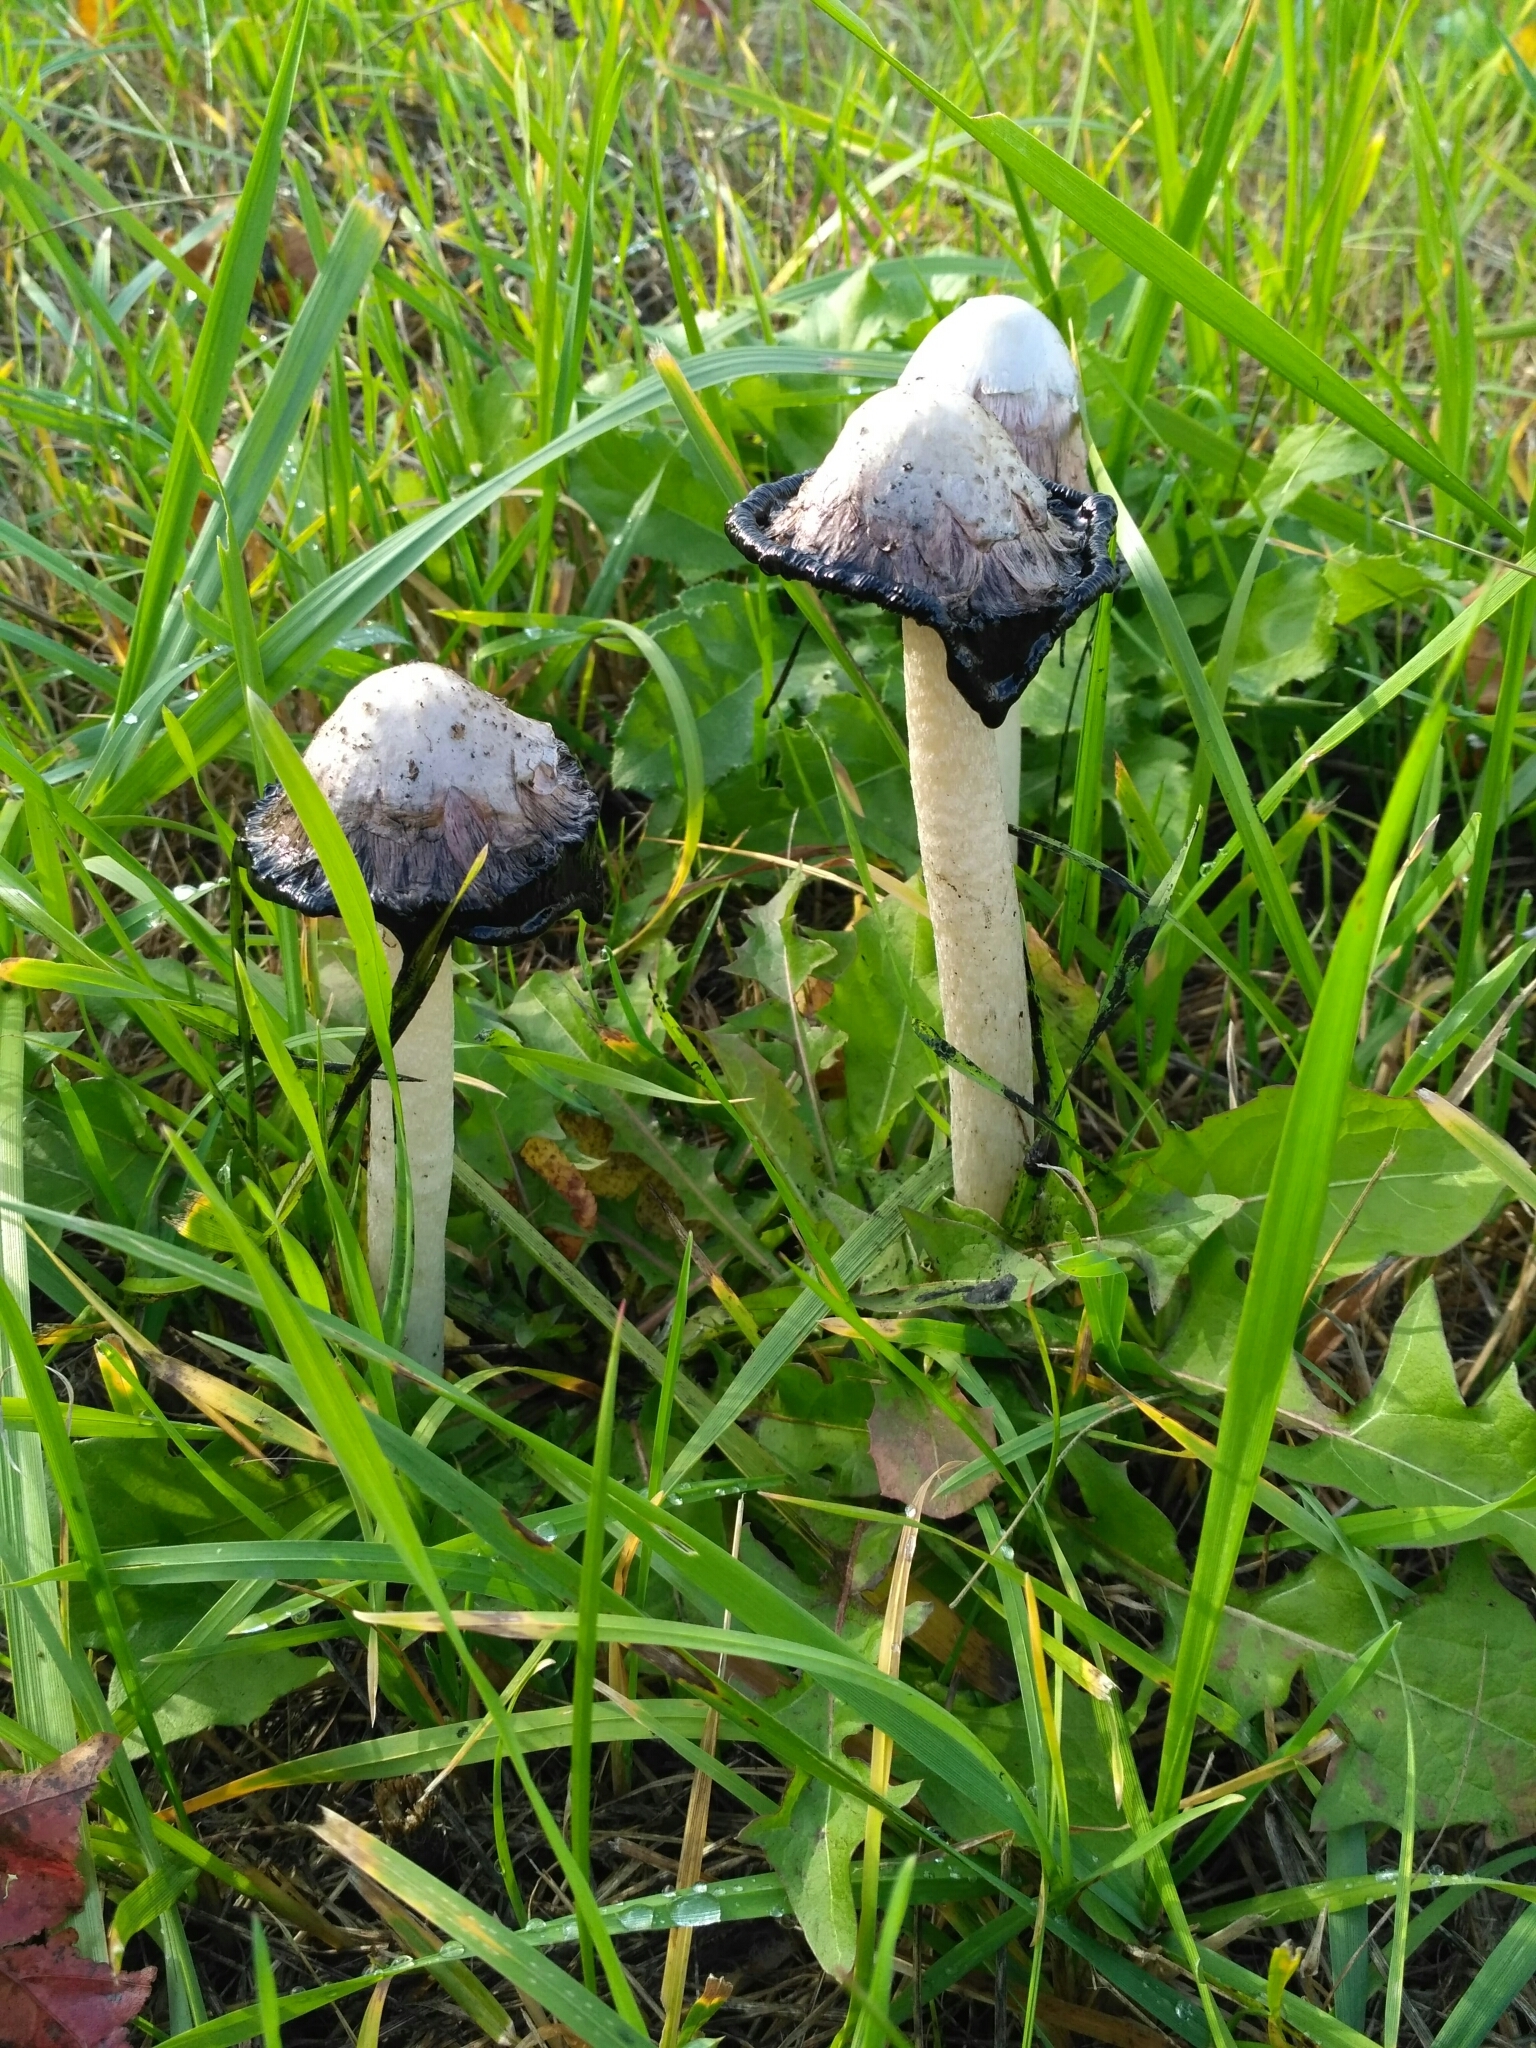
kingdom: Fungi
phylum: Basidiomycota
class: Agaricomycetes
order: Agaricales
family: Agaricaceae
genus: Coprinus
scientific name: Coprinus comatus
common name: Lawyer's wig
